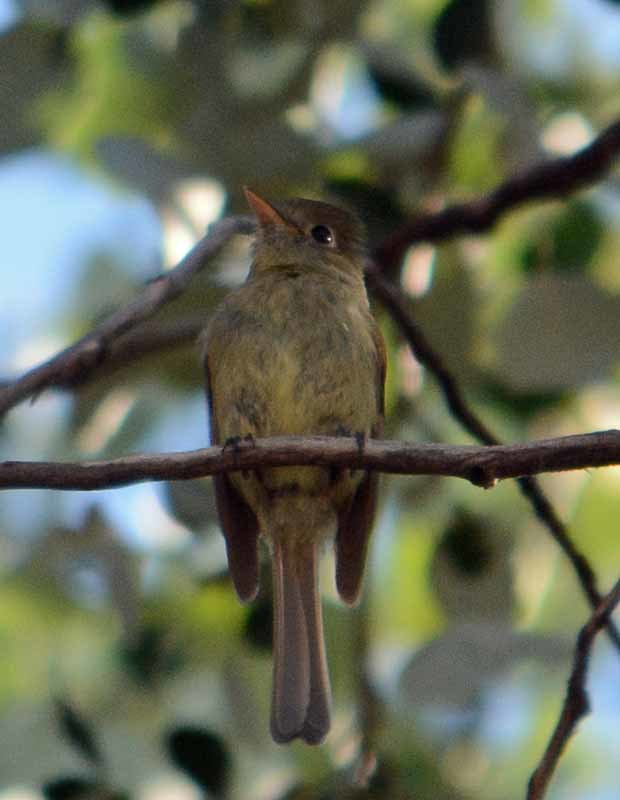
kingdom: Animalia
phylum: Chordata
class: Aves
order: Passeriformes
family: Tyrannidae
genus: Empidonax
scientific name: Empidonax difficilis
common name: Pacific-slope flycatcher
